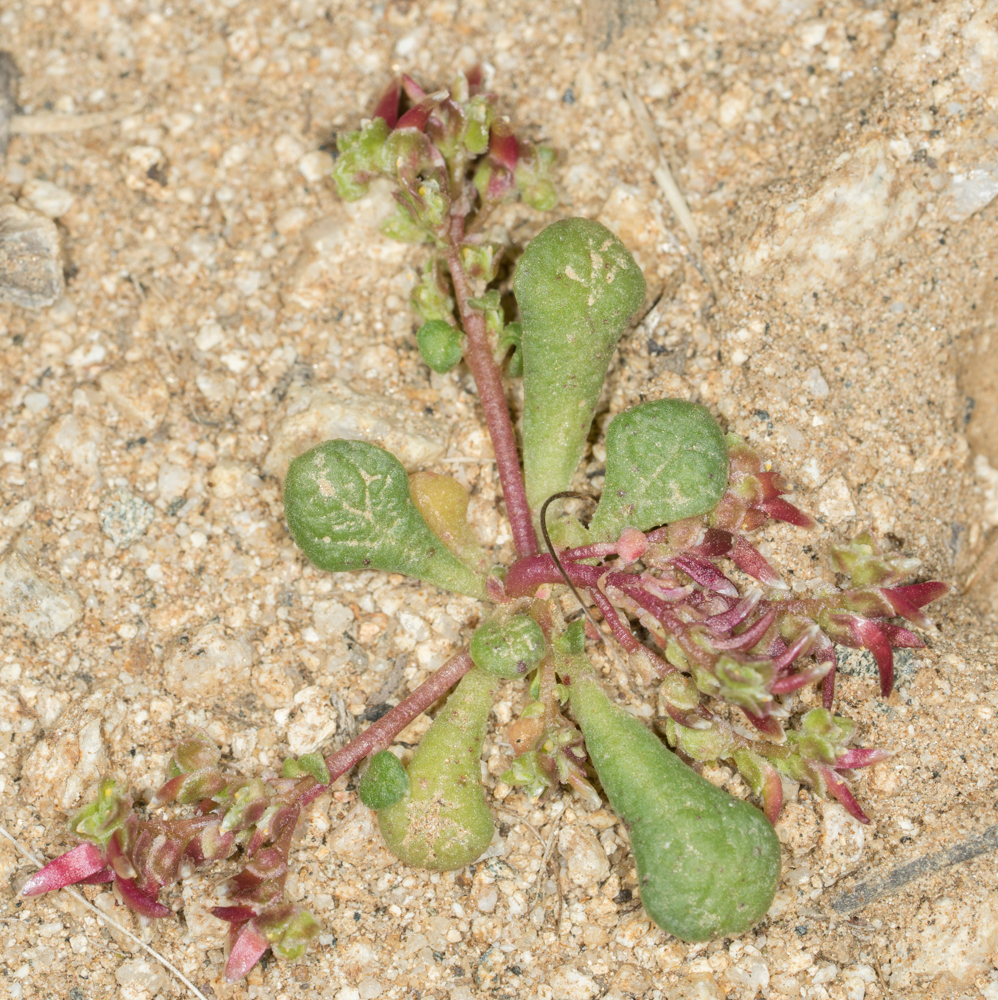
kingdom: Plantae
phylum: Tracheophyta
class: Magnoliopsida
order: Caryophyllales
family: Montiaceae
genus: Calyptridium
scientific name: Calyptridium monandrum
